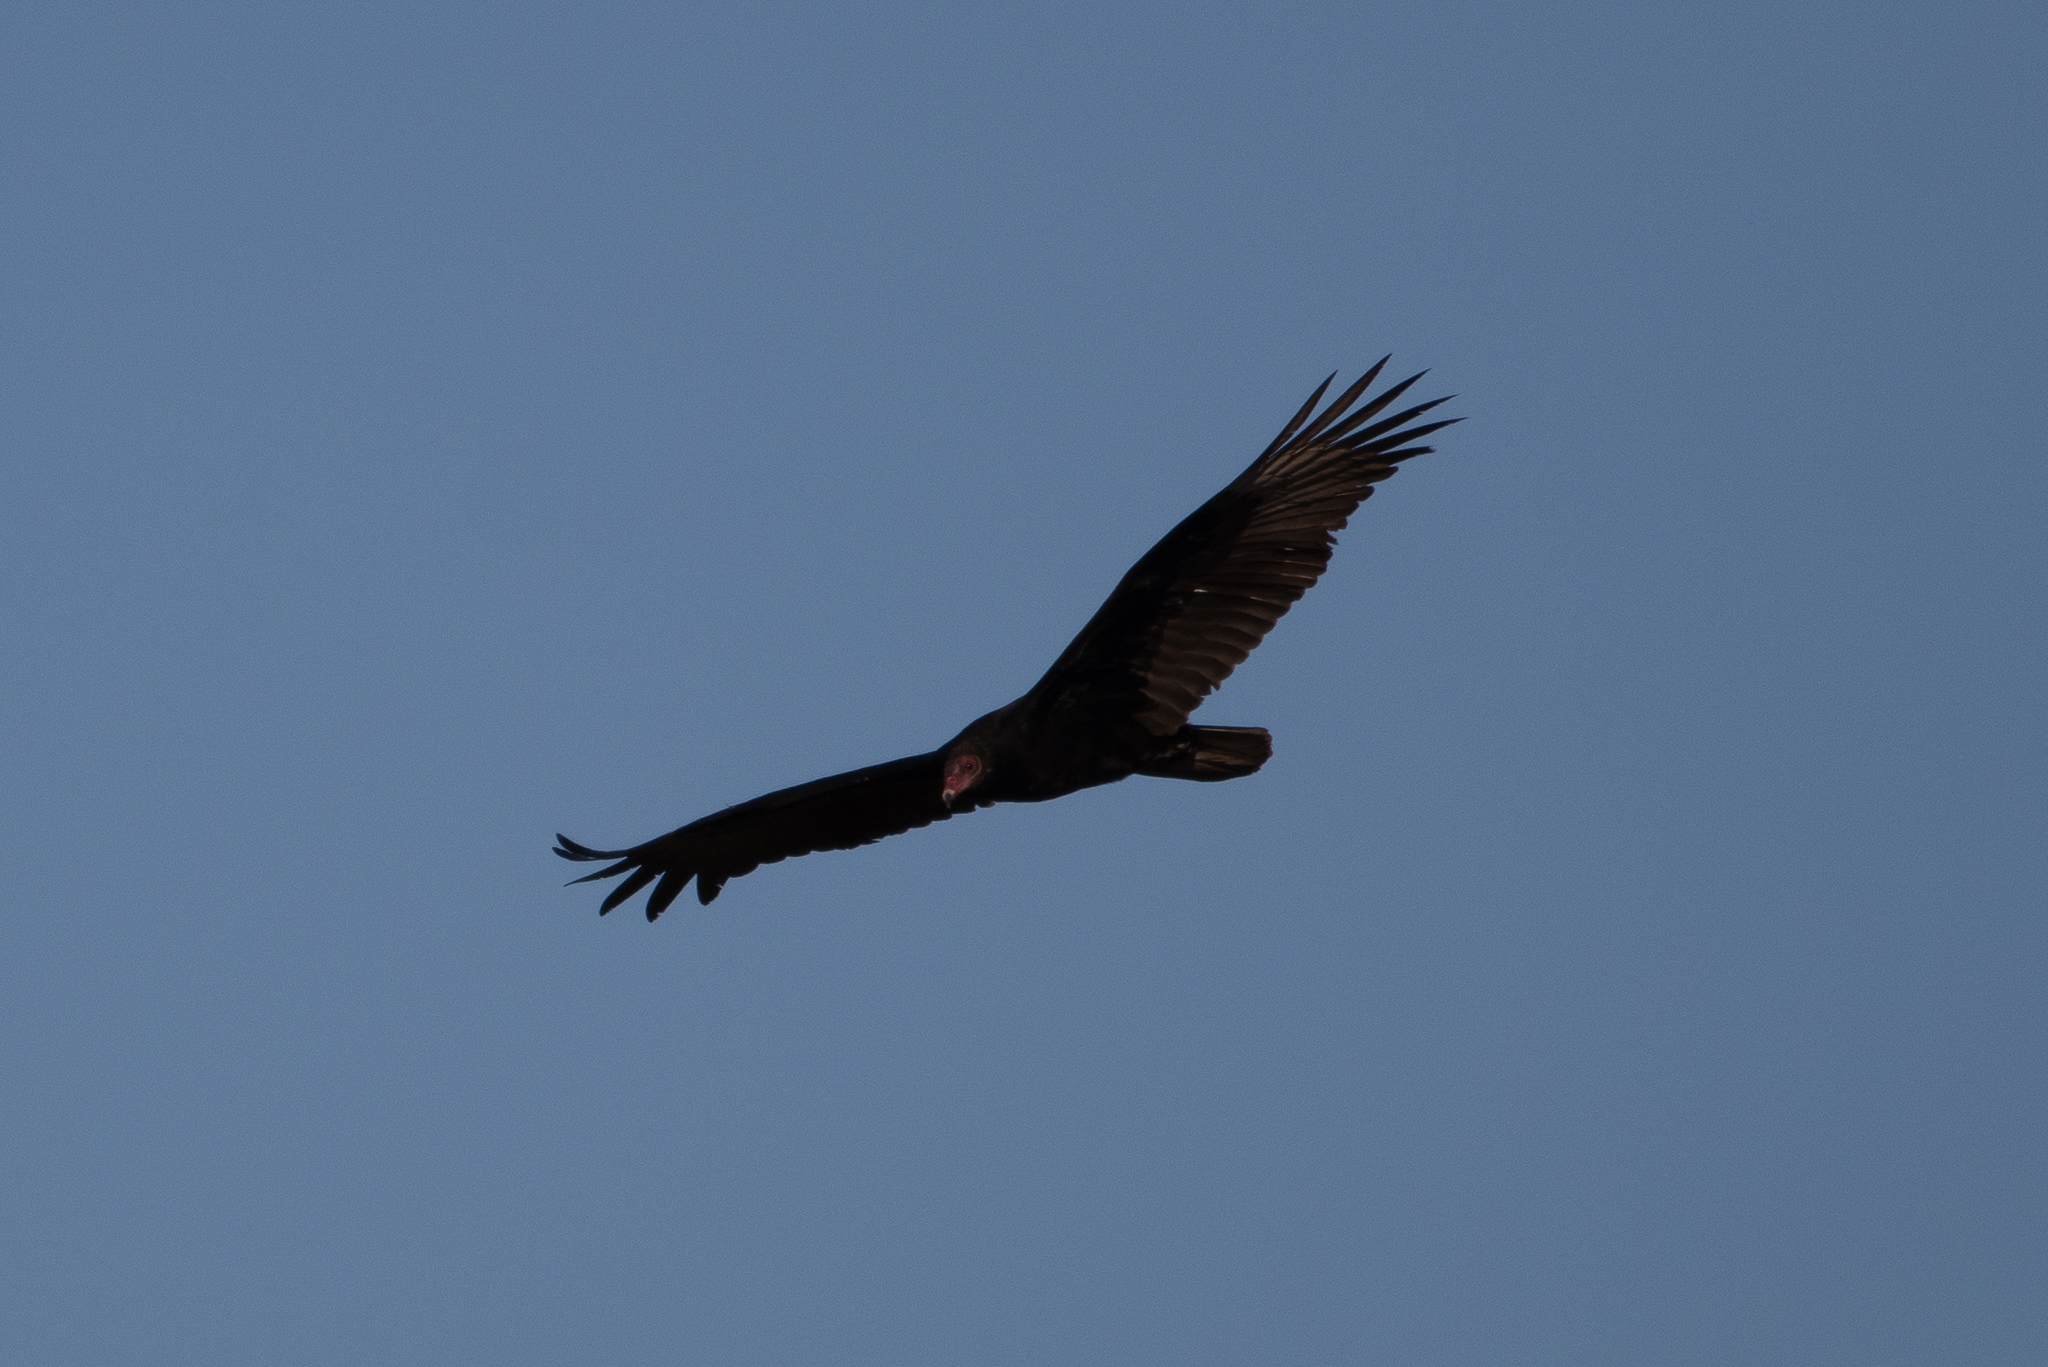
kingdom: Animalia
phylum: Chordata
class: Aves
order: Accipitriformes
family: Cathartidae
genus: Cathartes
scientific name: Cathartes aura
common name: Turkey vulture
